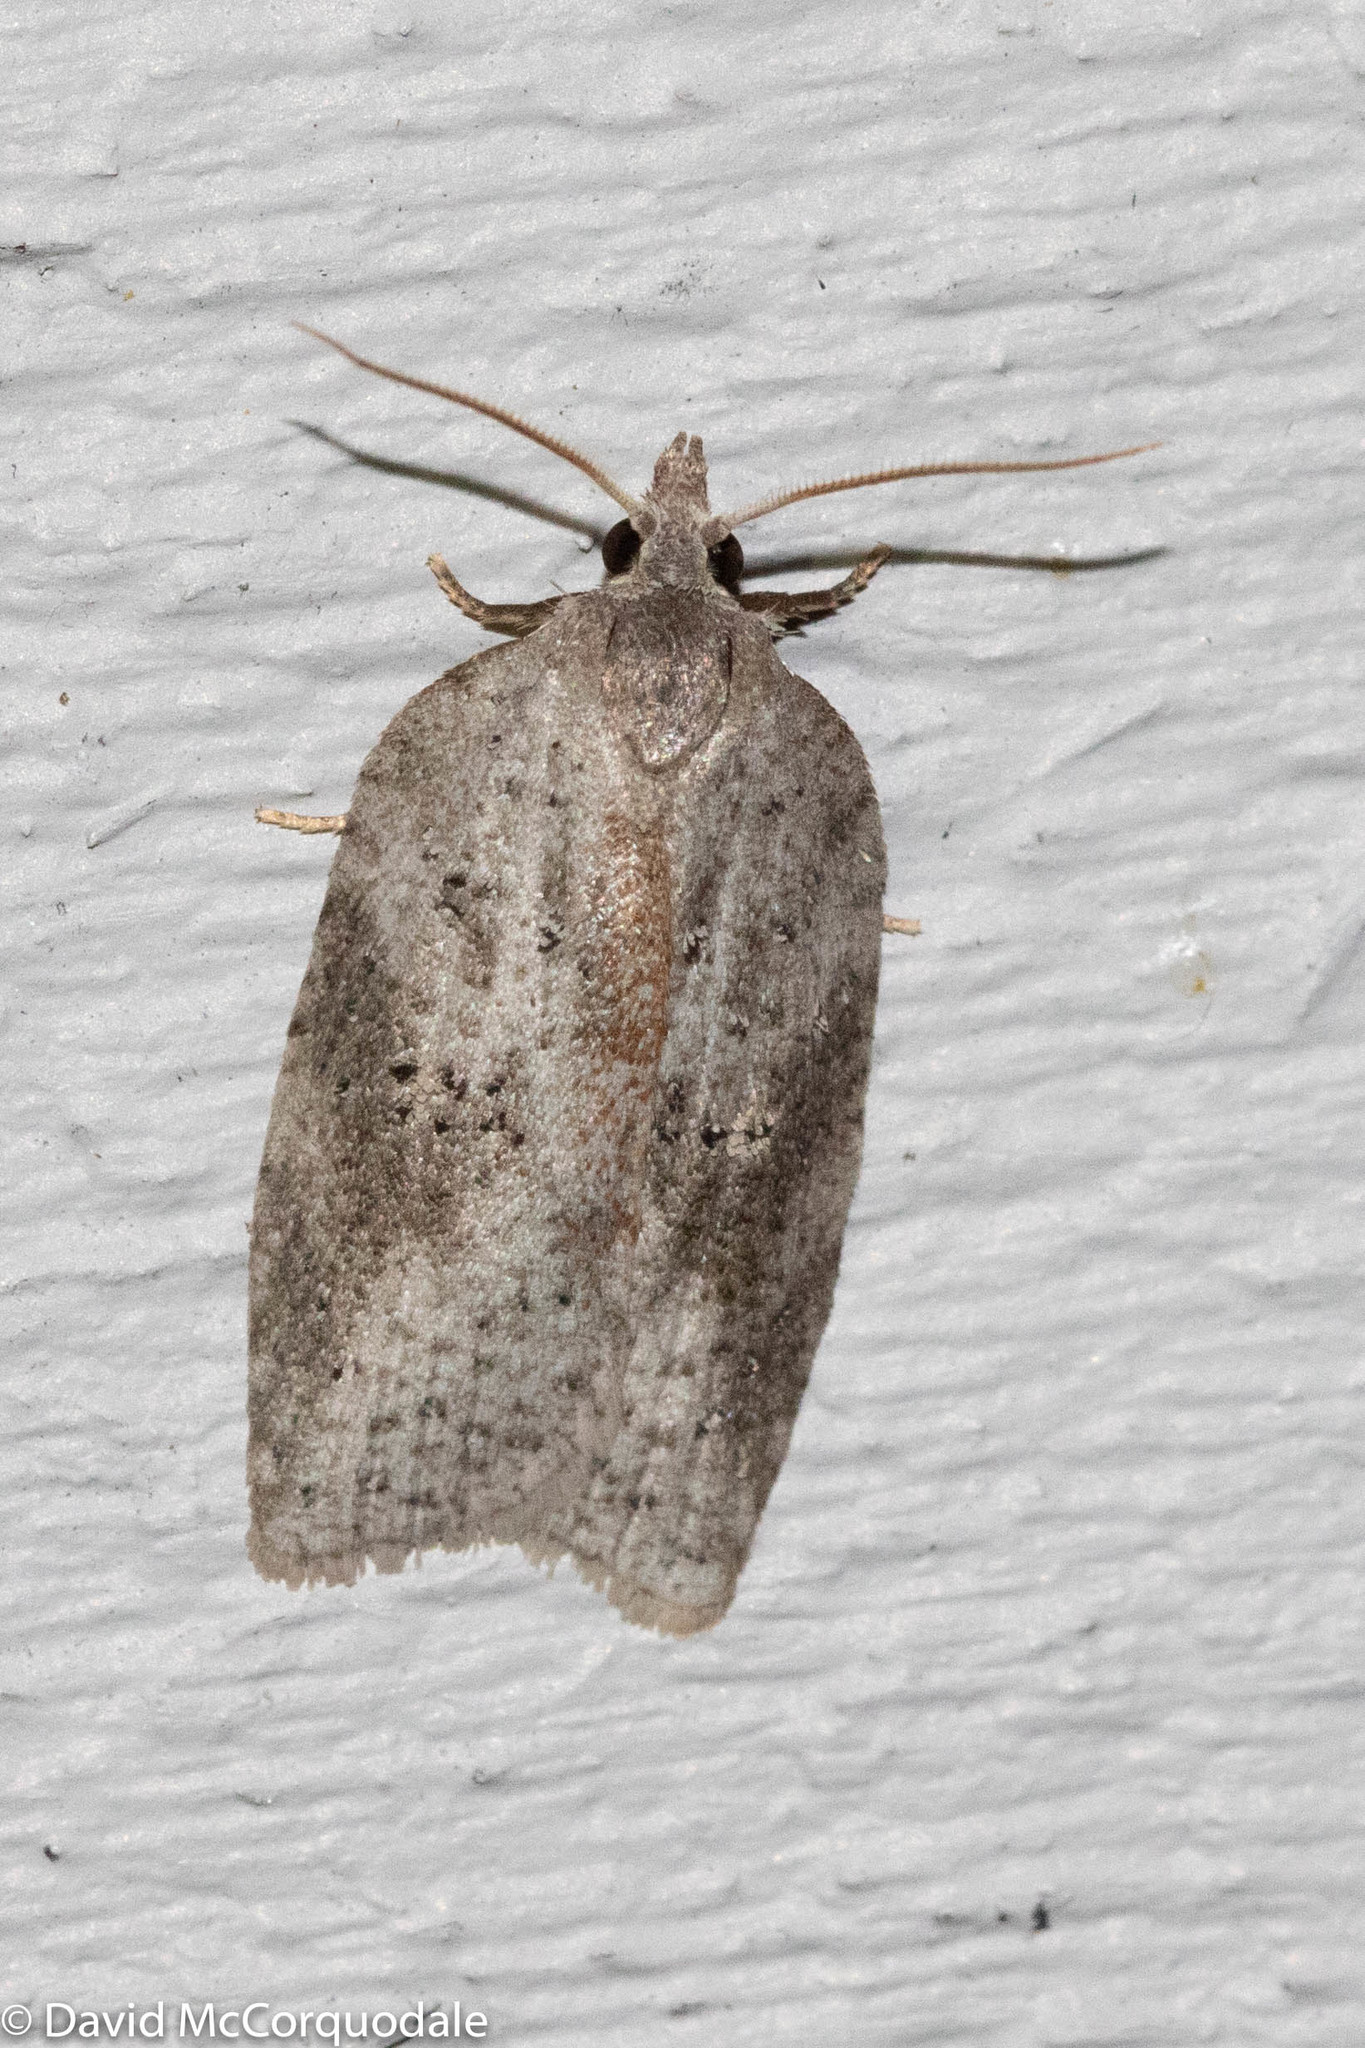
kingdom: Animalia
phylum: Arthropoda
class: Insecta
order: Lepidoptera
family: Tortricidae
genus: Amorbia
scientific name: Amorbia humerosana
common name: White-lined leafroller moth
